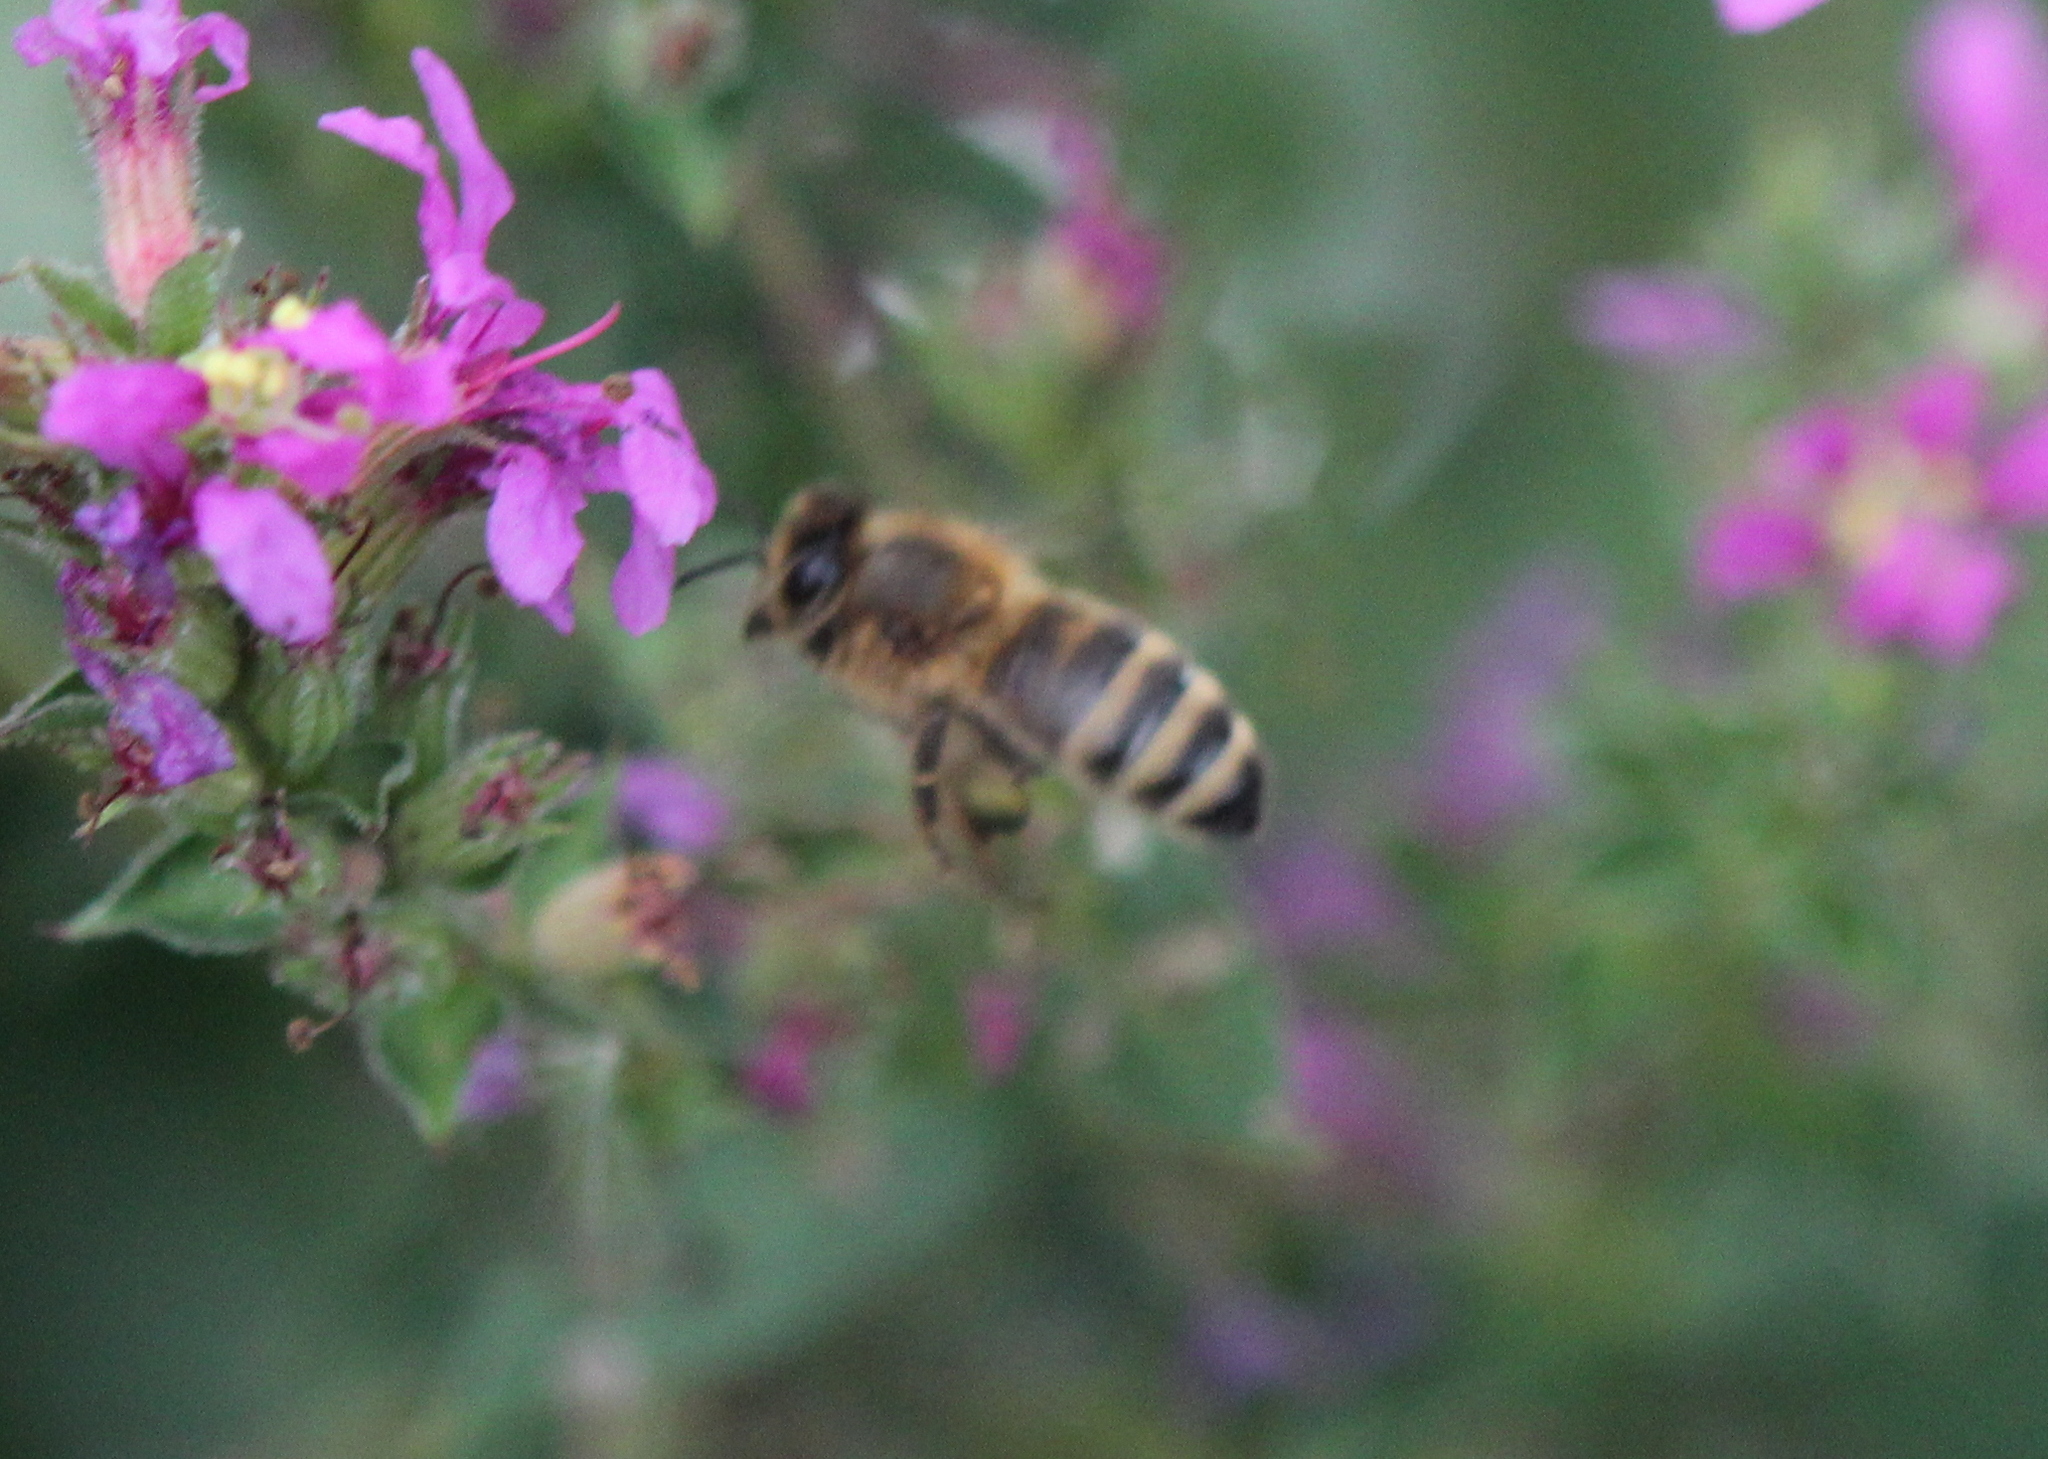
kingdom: Animalia
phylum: Arthropoda
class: Insecta
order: Hymenoptera
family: Apidae
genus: Apis
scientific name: Apis mellifera
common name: Honey bee
